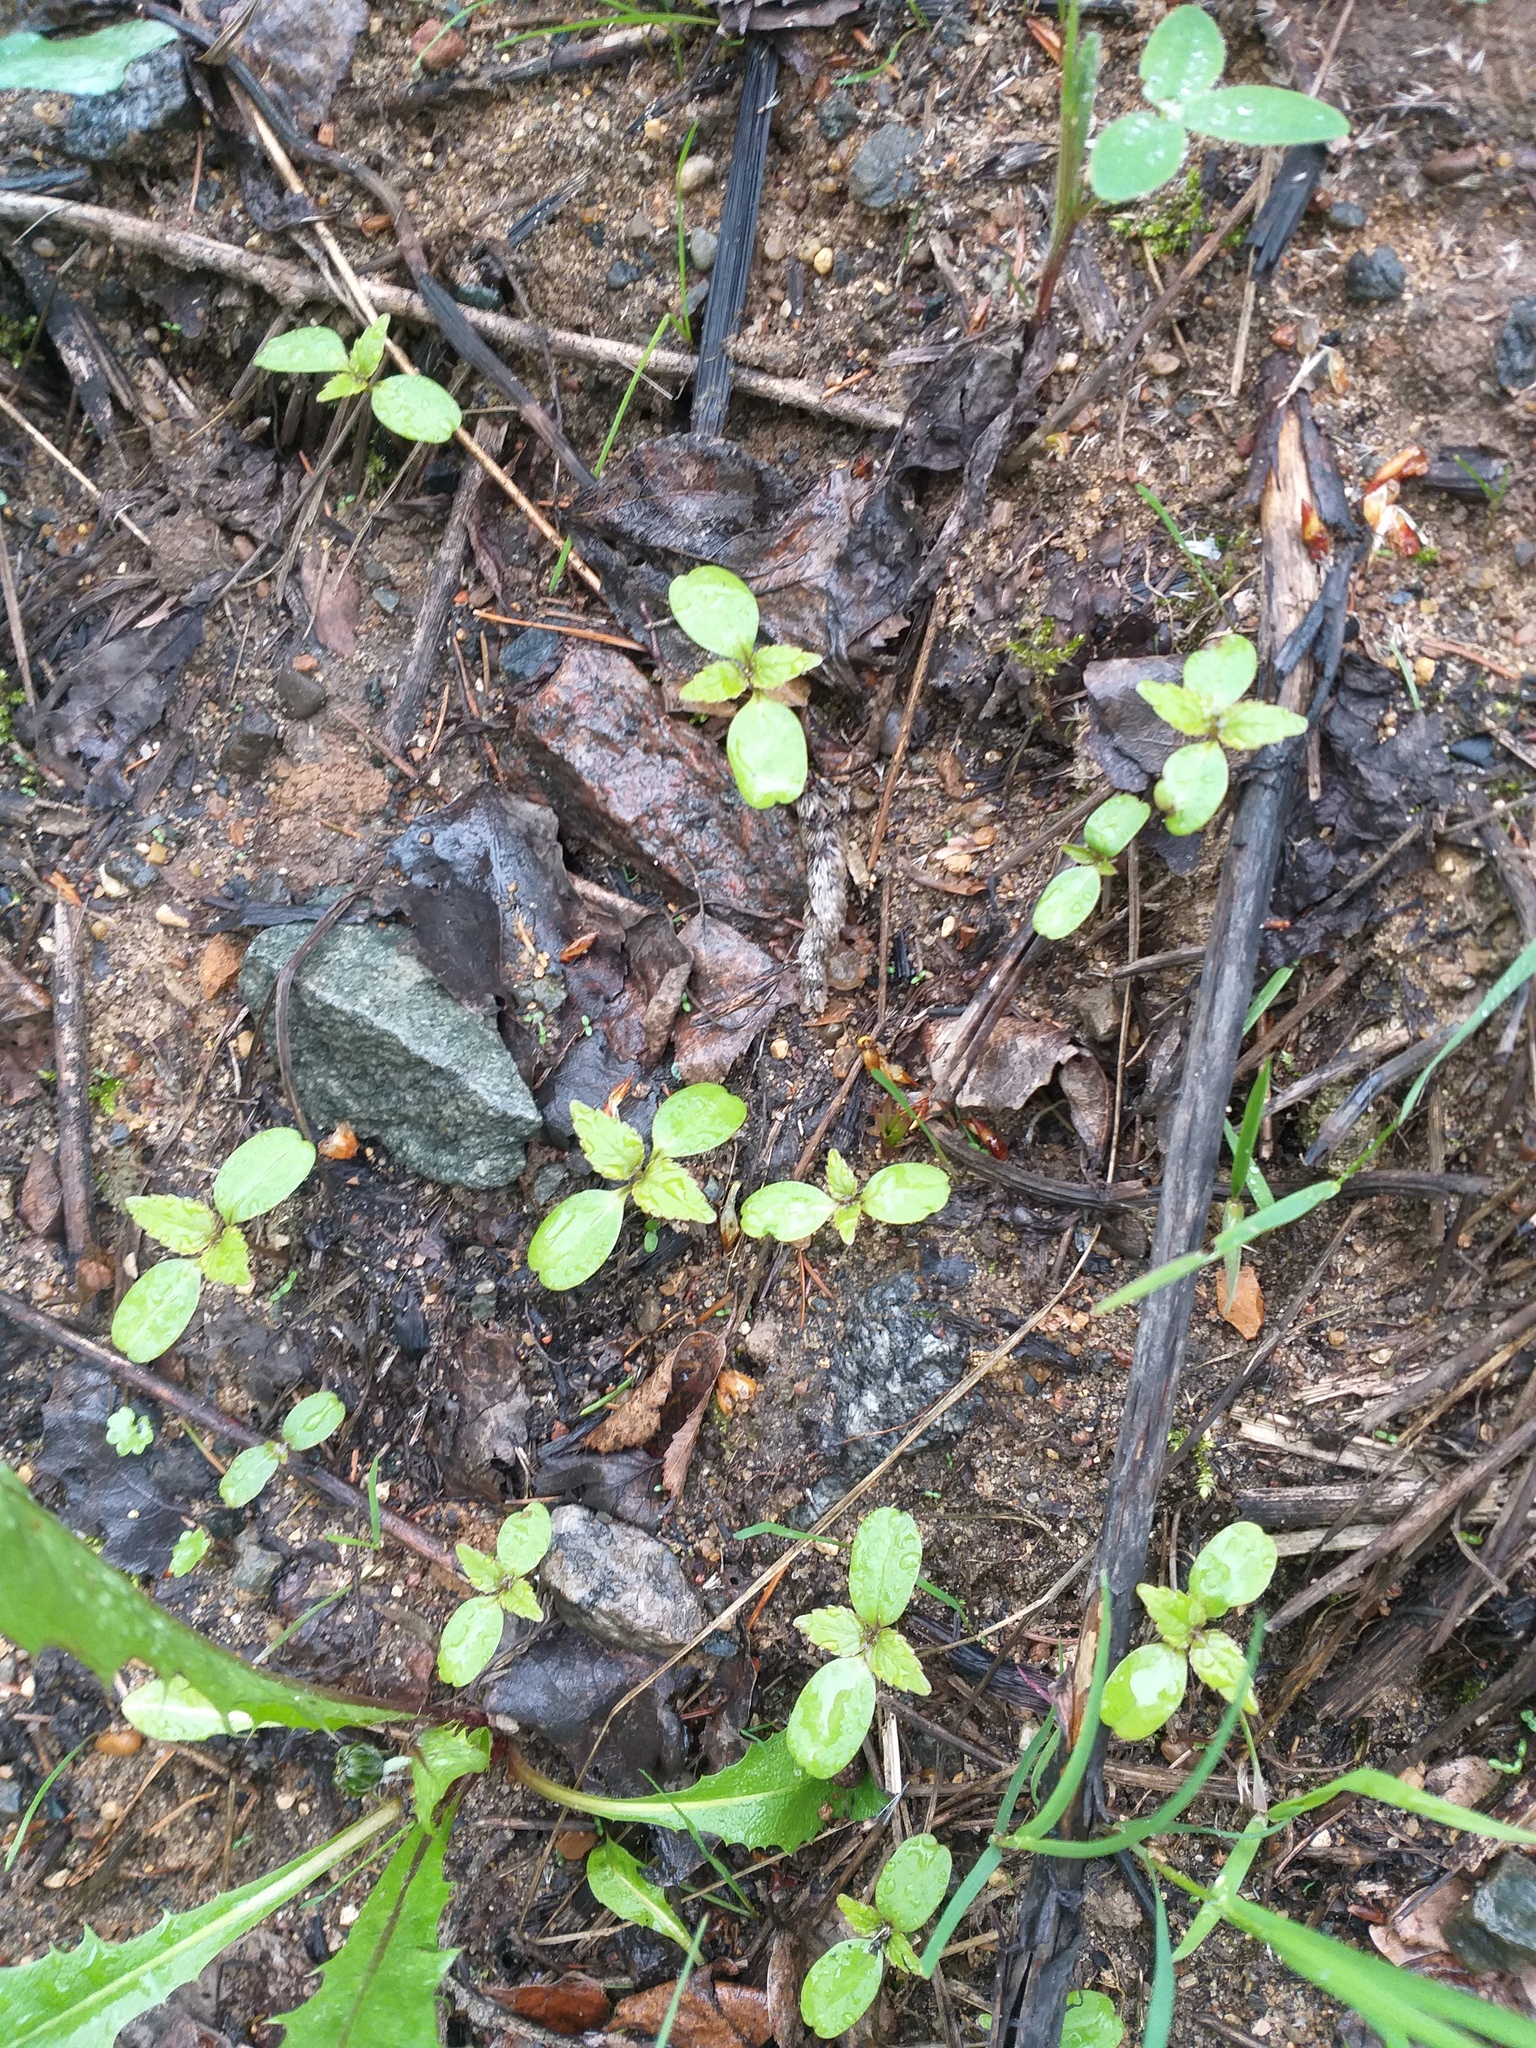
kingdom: Plantae
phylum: Tracheophyta
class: Magnoliopsida
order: Ericales
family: Balsaminaceae
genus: Impatiens
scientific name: Impatiens parviflora
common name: Small balsam
